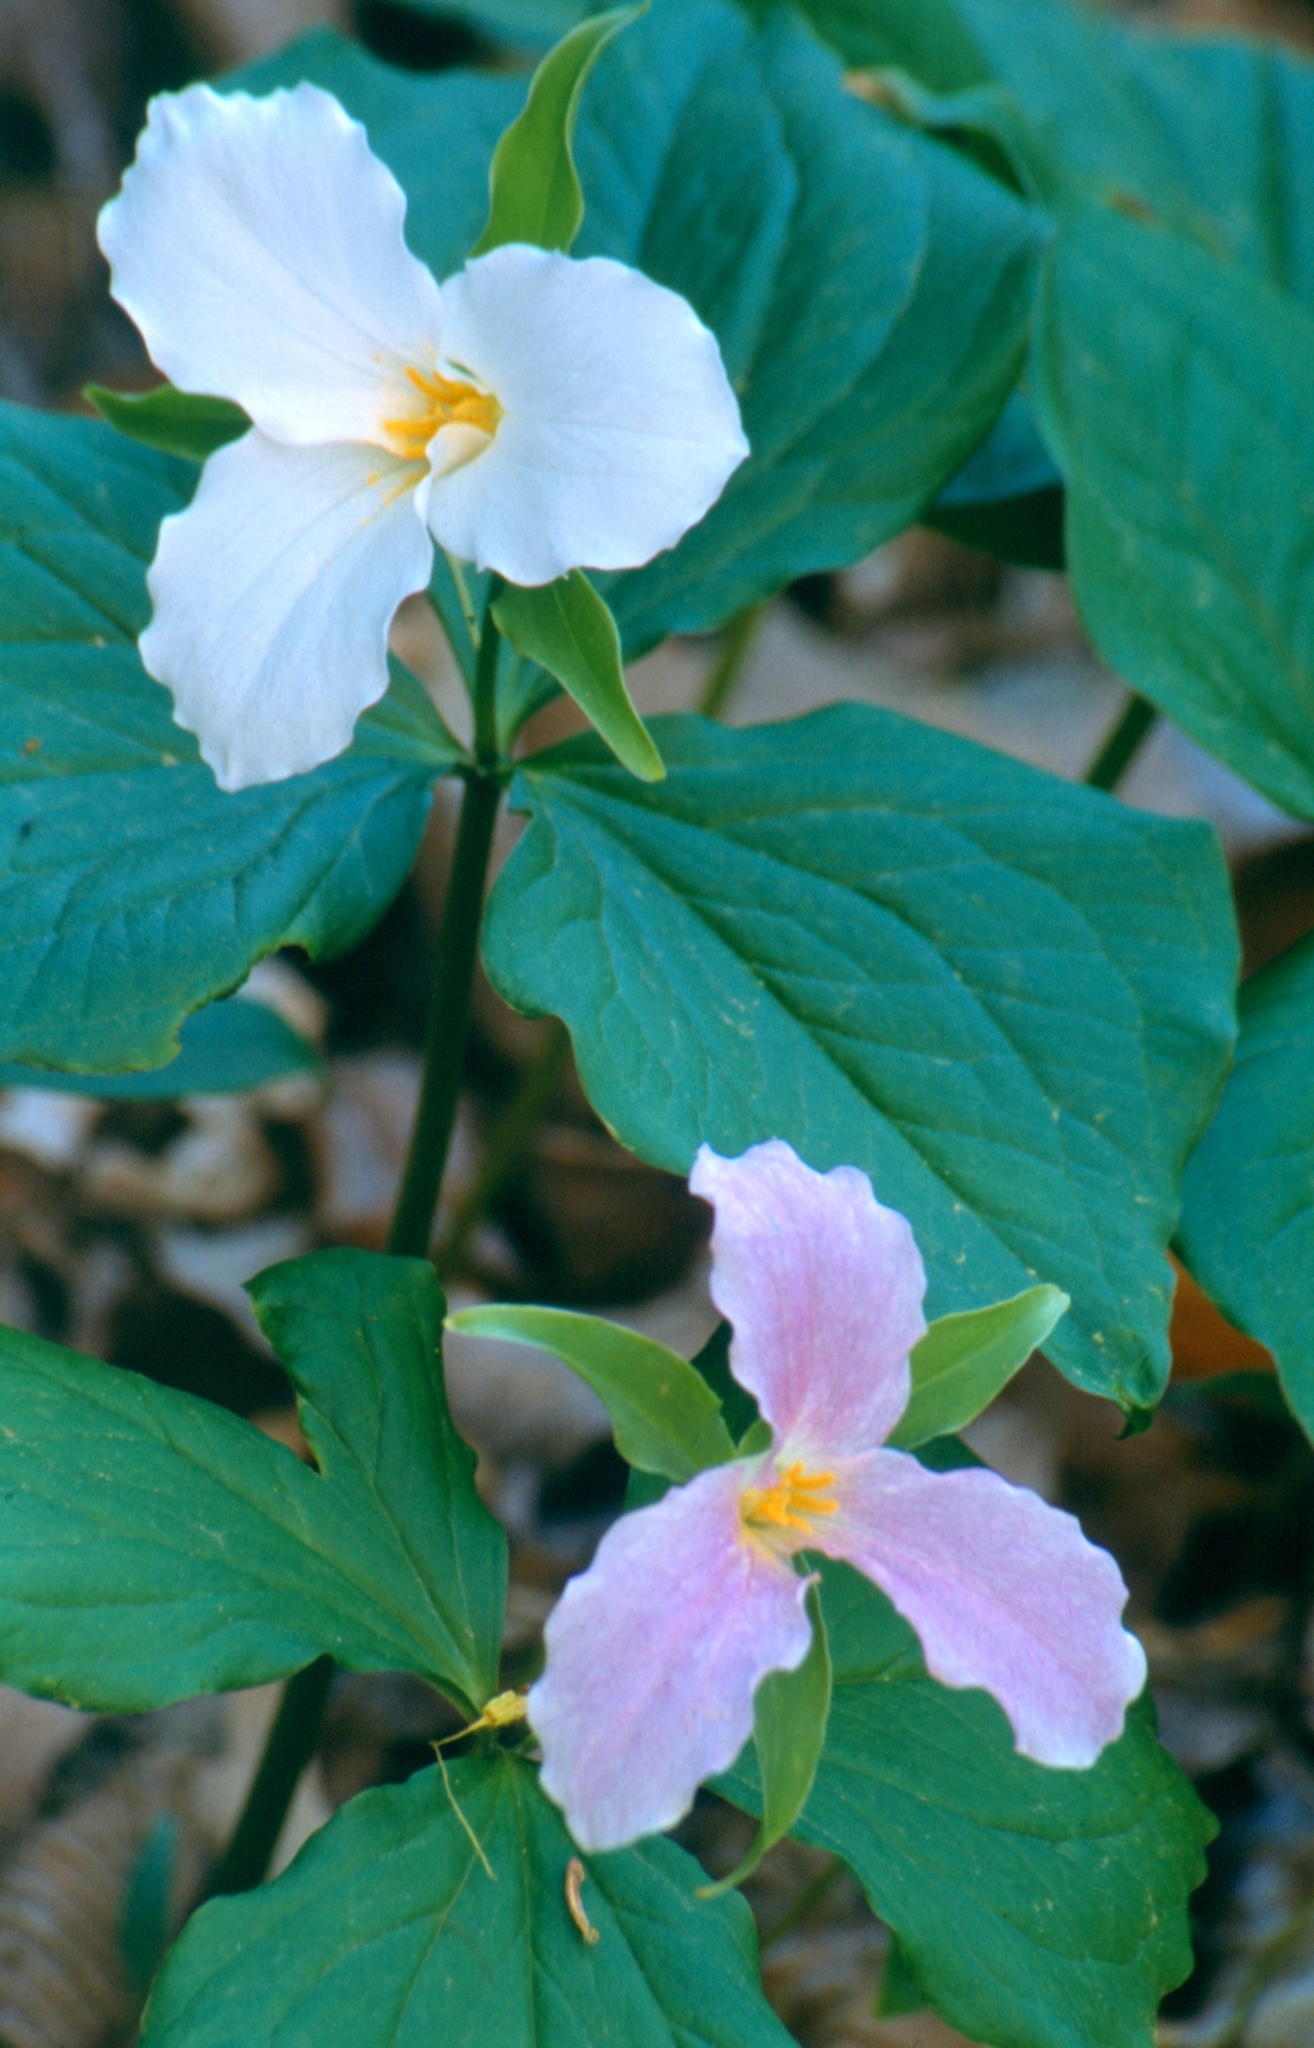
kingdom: Plantae
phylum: Tracheophyta
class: Liliopsida
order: Liliales
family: Melanthiaceae
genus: Trillium
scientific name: Trillium grandiflorum
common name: Great white trillium
